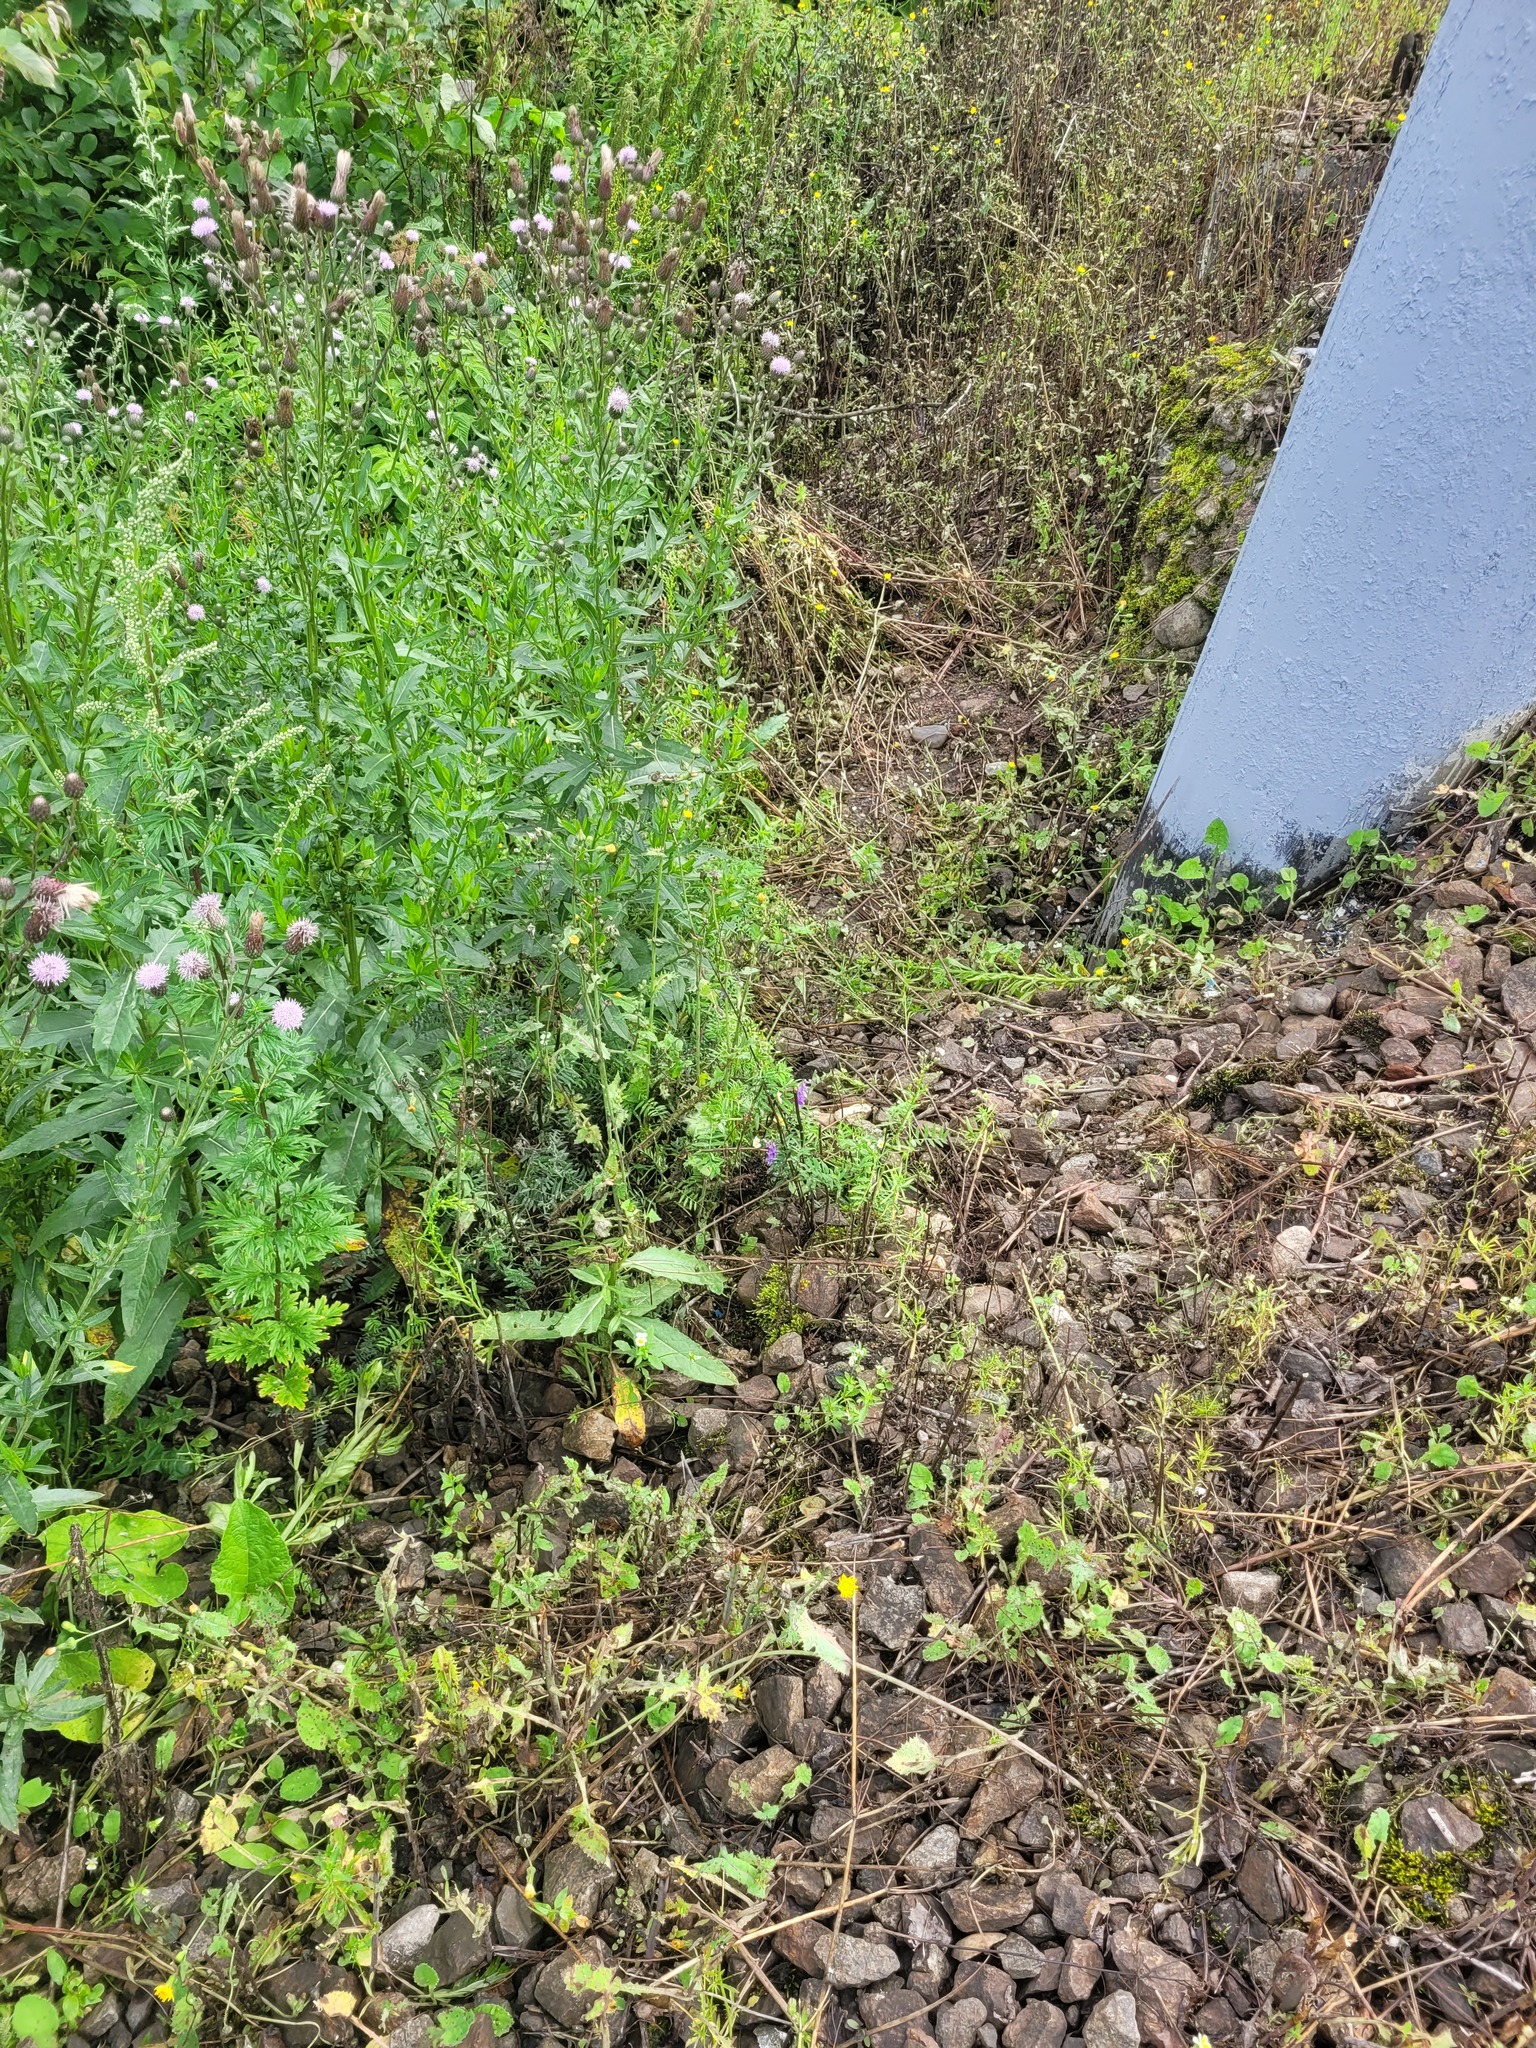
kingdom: Plantae
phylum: Tracheophyta
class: Magnoliopsida
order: Fabales
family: Fabaceae
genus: Vicia
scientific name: Vicia cracca
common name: Bird vetch
